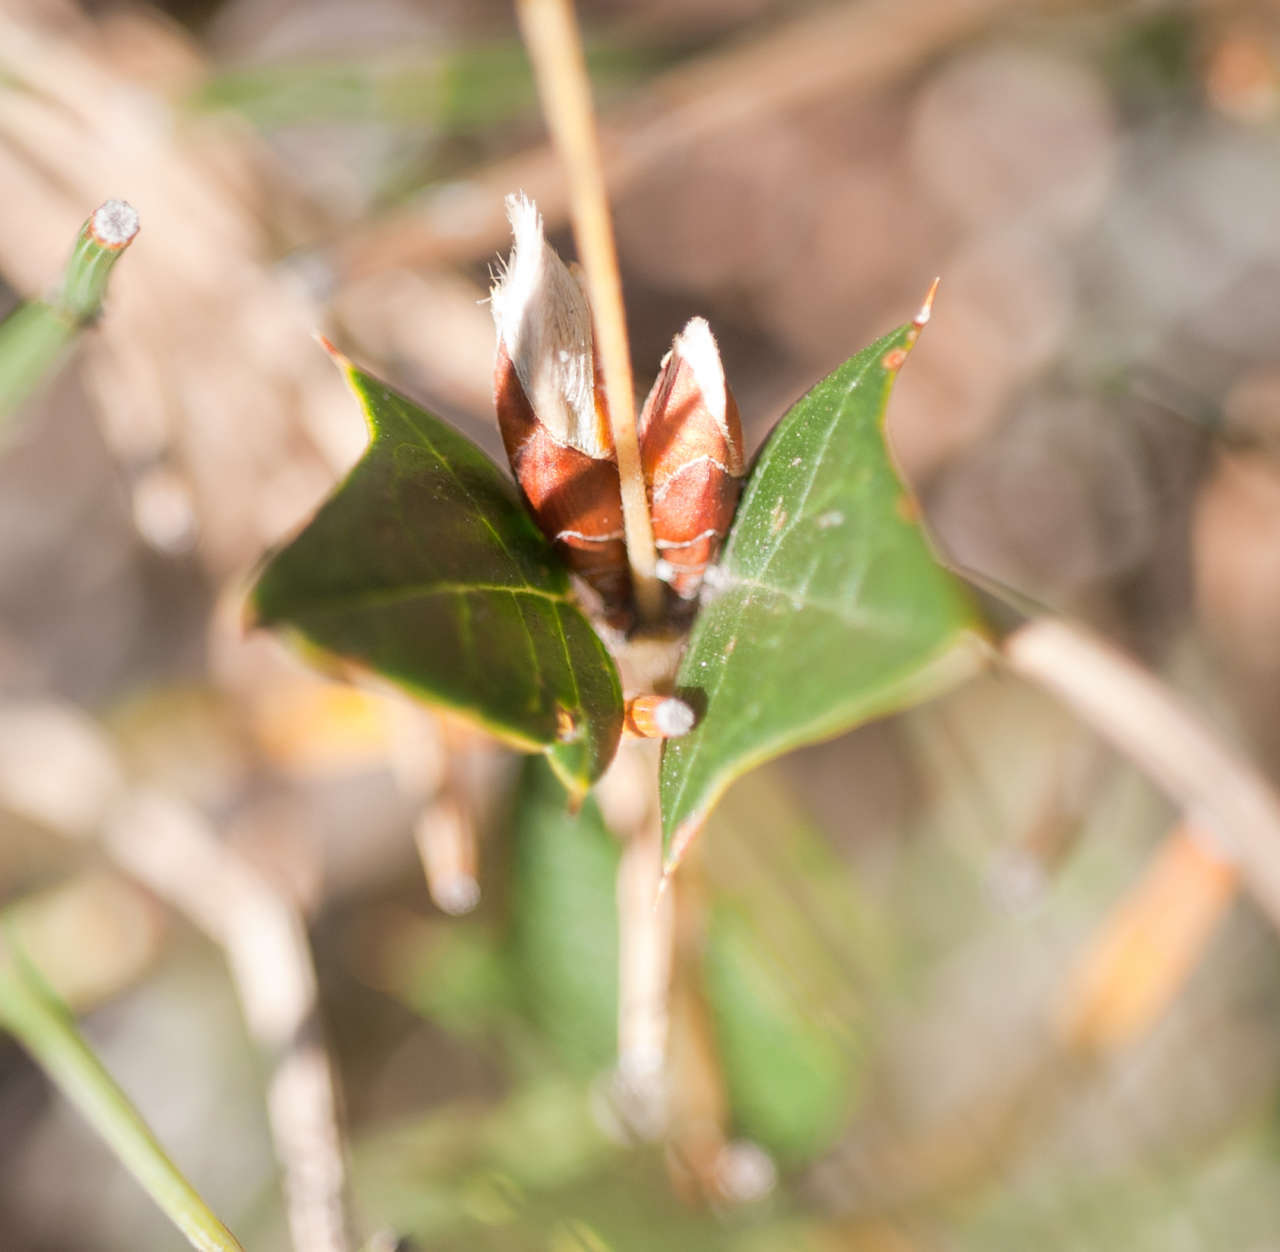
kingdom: Plantae
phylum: Tracheophyta
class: Magnoliopsida
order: Fabales
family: Fabaceae
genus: Platylobium
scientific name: Platylobium obtusangulum
